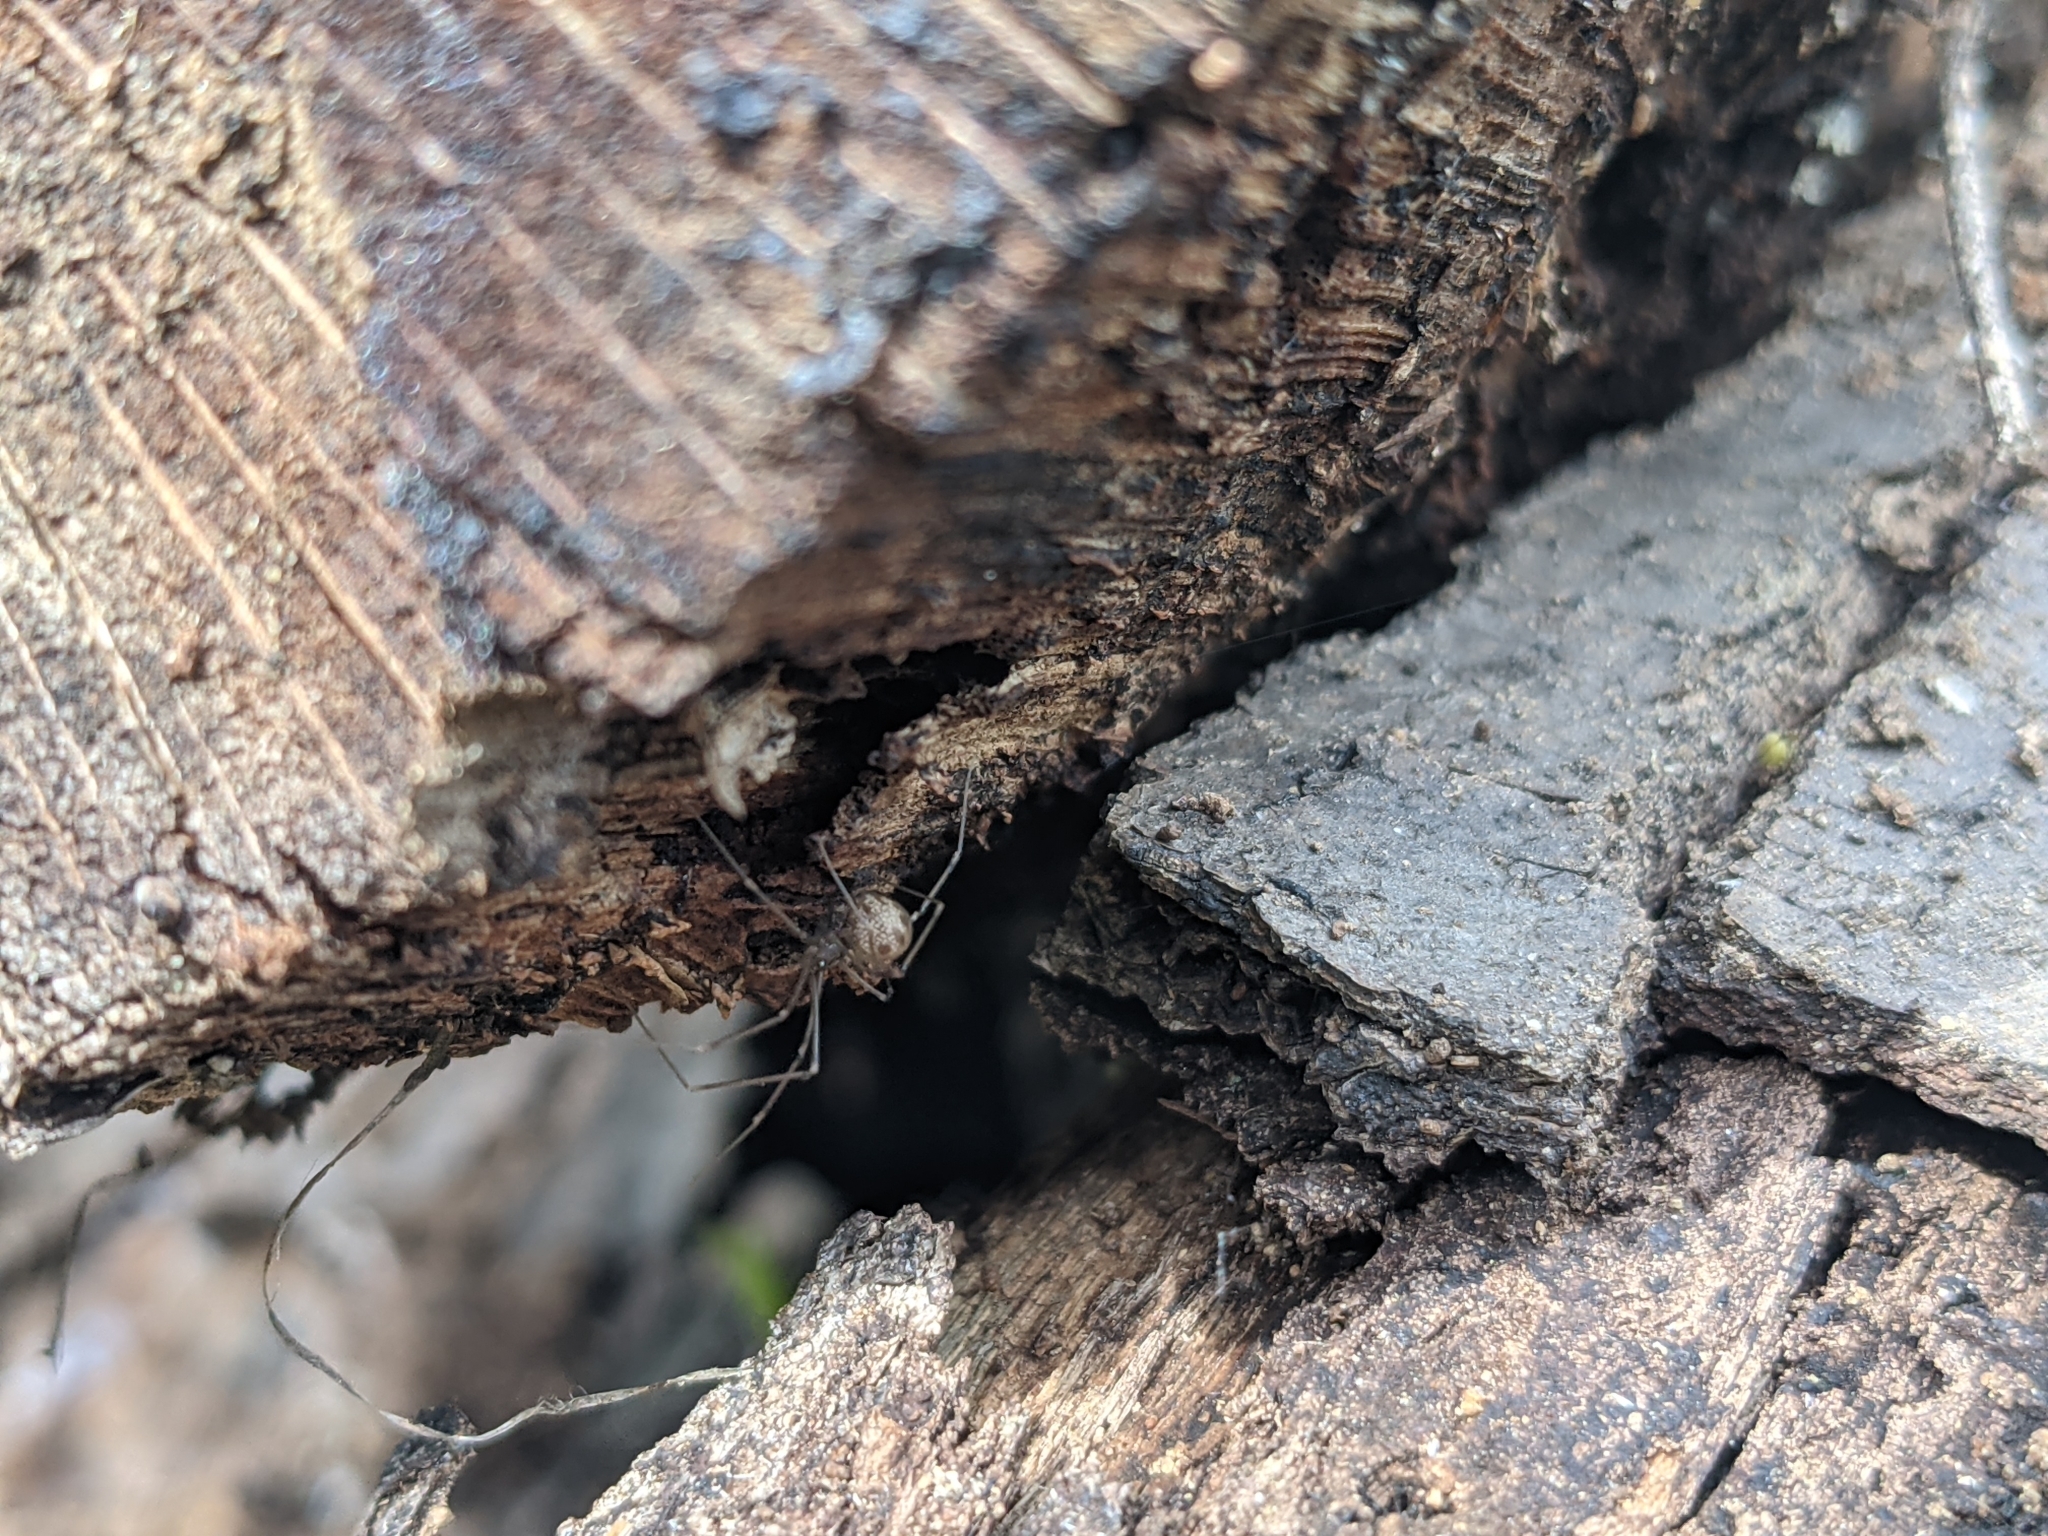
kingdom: Animalia
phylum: Arthropoda
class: Arachnida
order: Araneae
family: Pholcidae
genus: Hoplopholcus
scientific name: Hoplopholcus forskali
